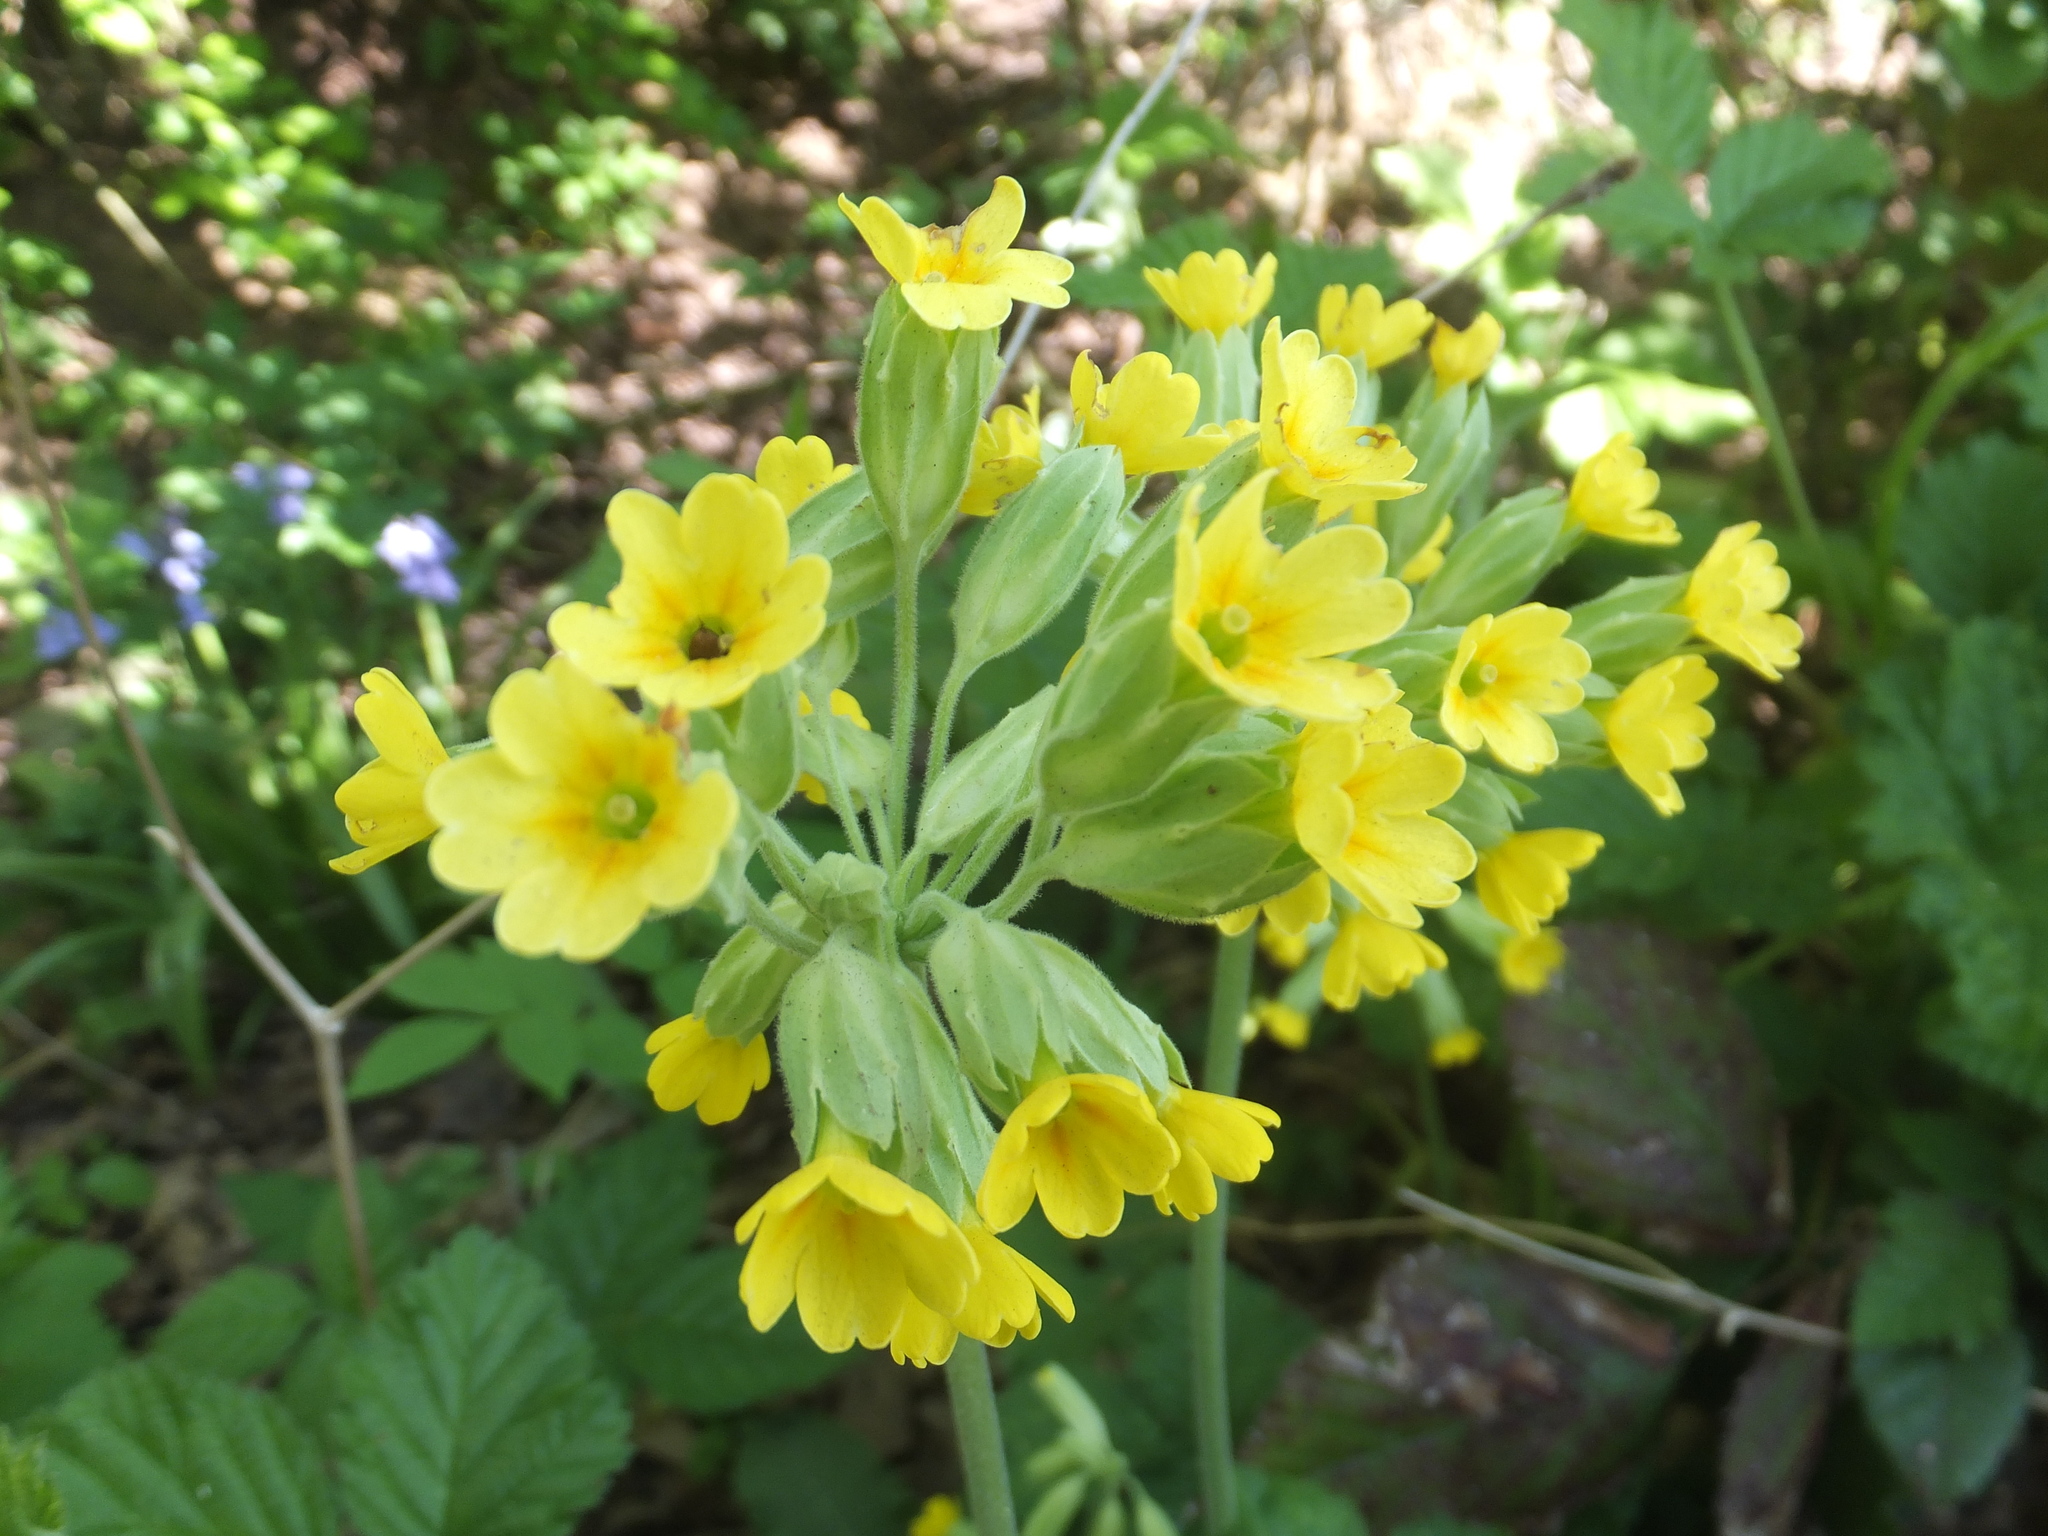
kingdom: Plantae
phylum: Tracheophyta
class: Magnoliopsida
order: Ericales
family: Primulaceae
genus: Primula
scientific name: Primula veris
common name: Cowslip
